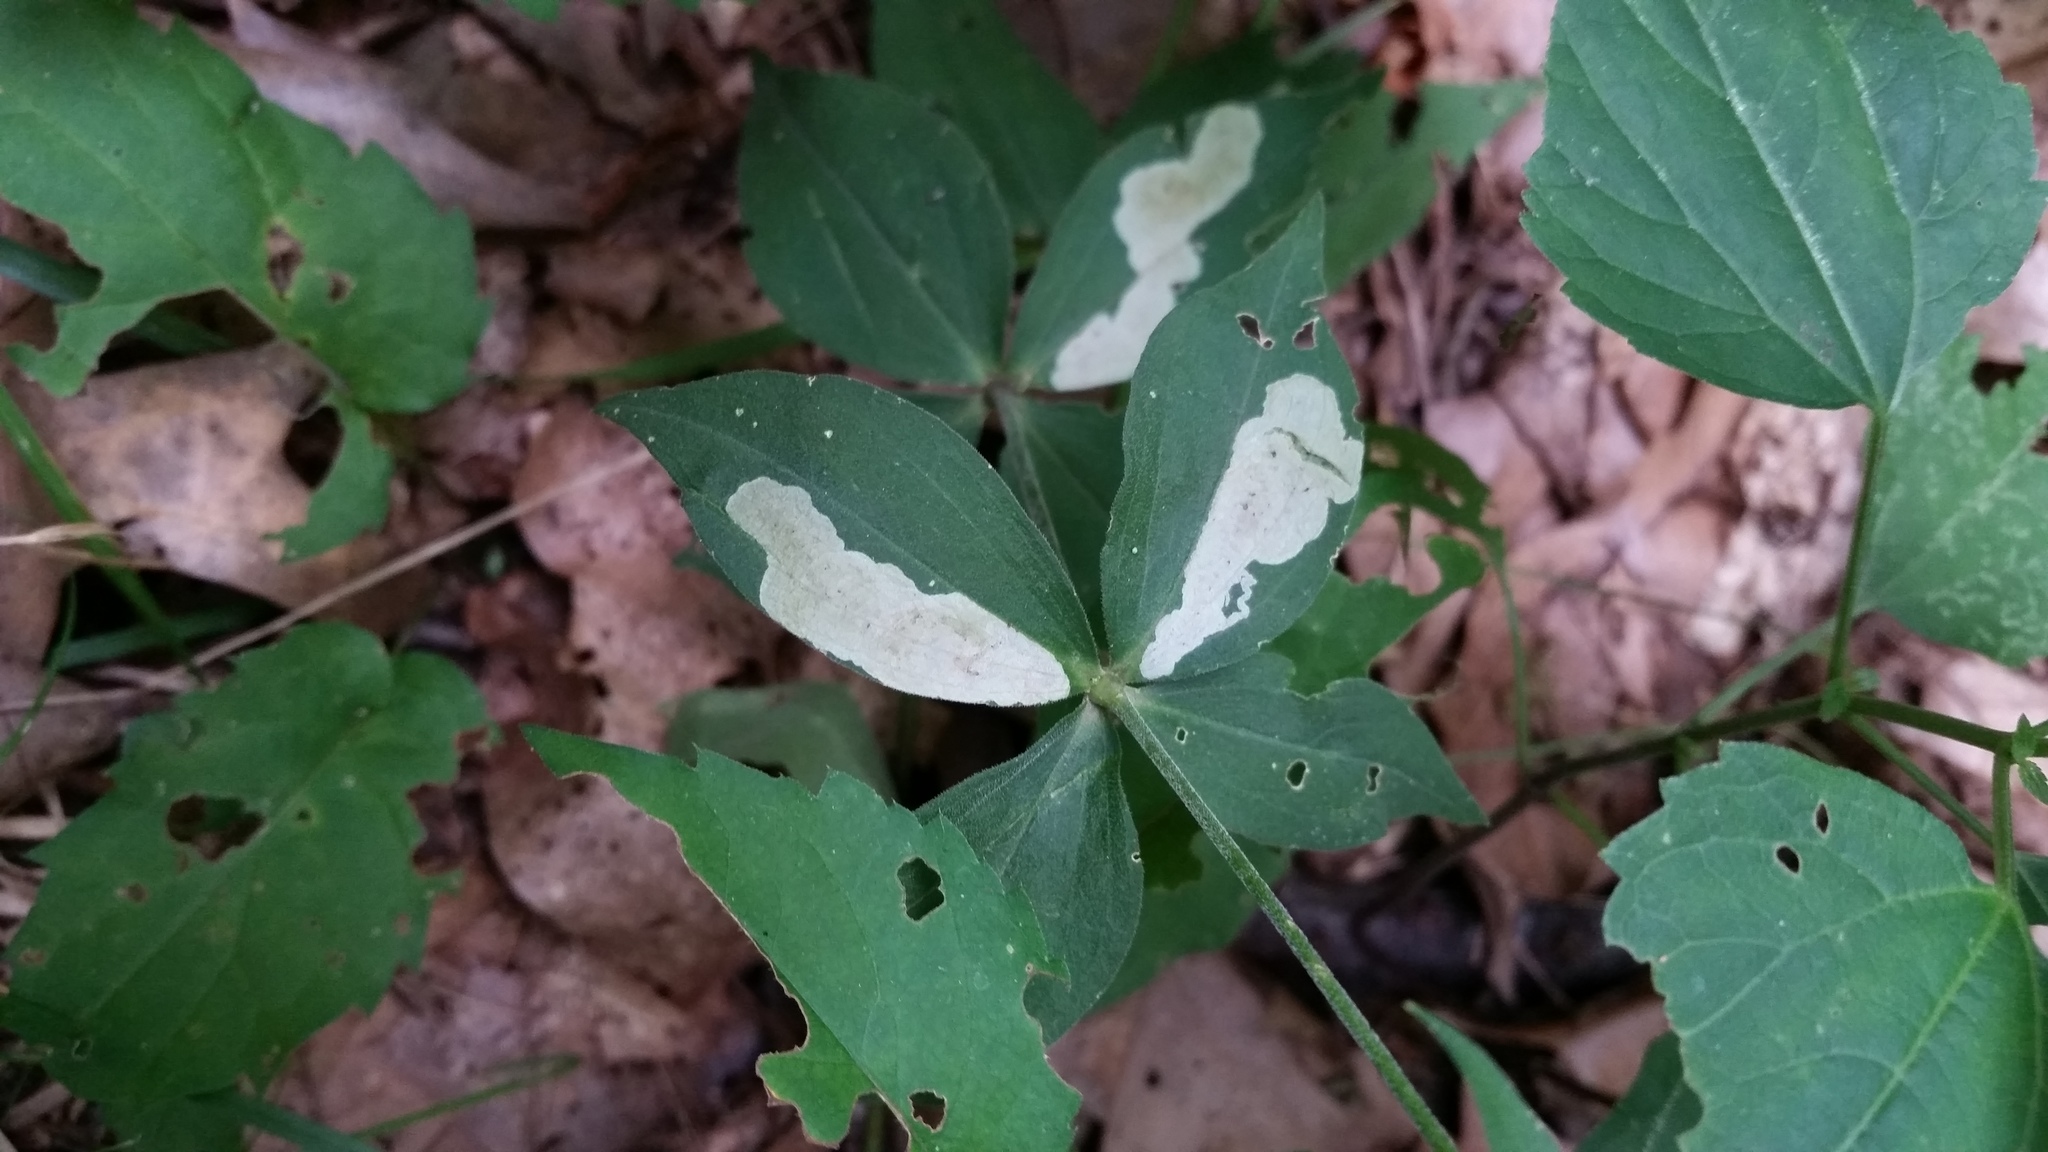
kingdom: Animalia
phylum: Arthropoda
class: Insecta
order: Diptera
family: Agromyzidae
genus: Amauromyza
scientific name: Amauromyza flavifrons
